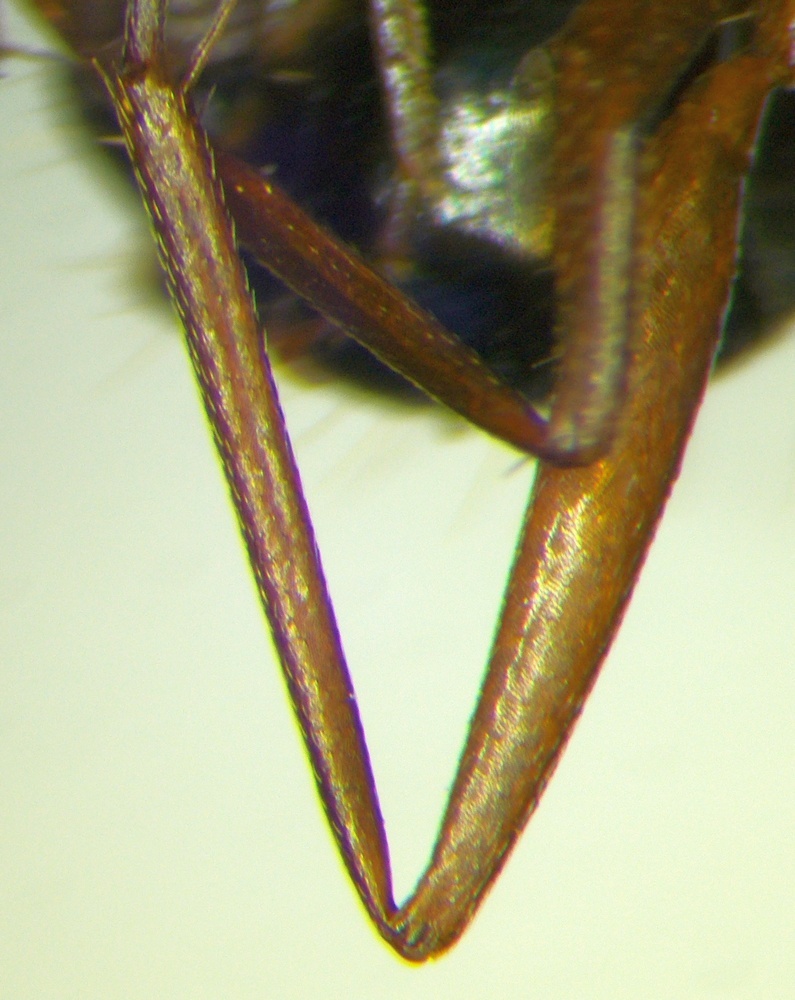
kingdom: Animalia
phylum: Arthropoda
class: Insecta
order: Hymenoptera
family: Formicidae
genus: Camponotus
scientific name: Camponotus turkestanicus
